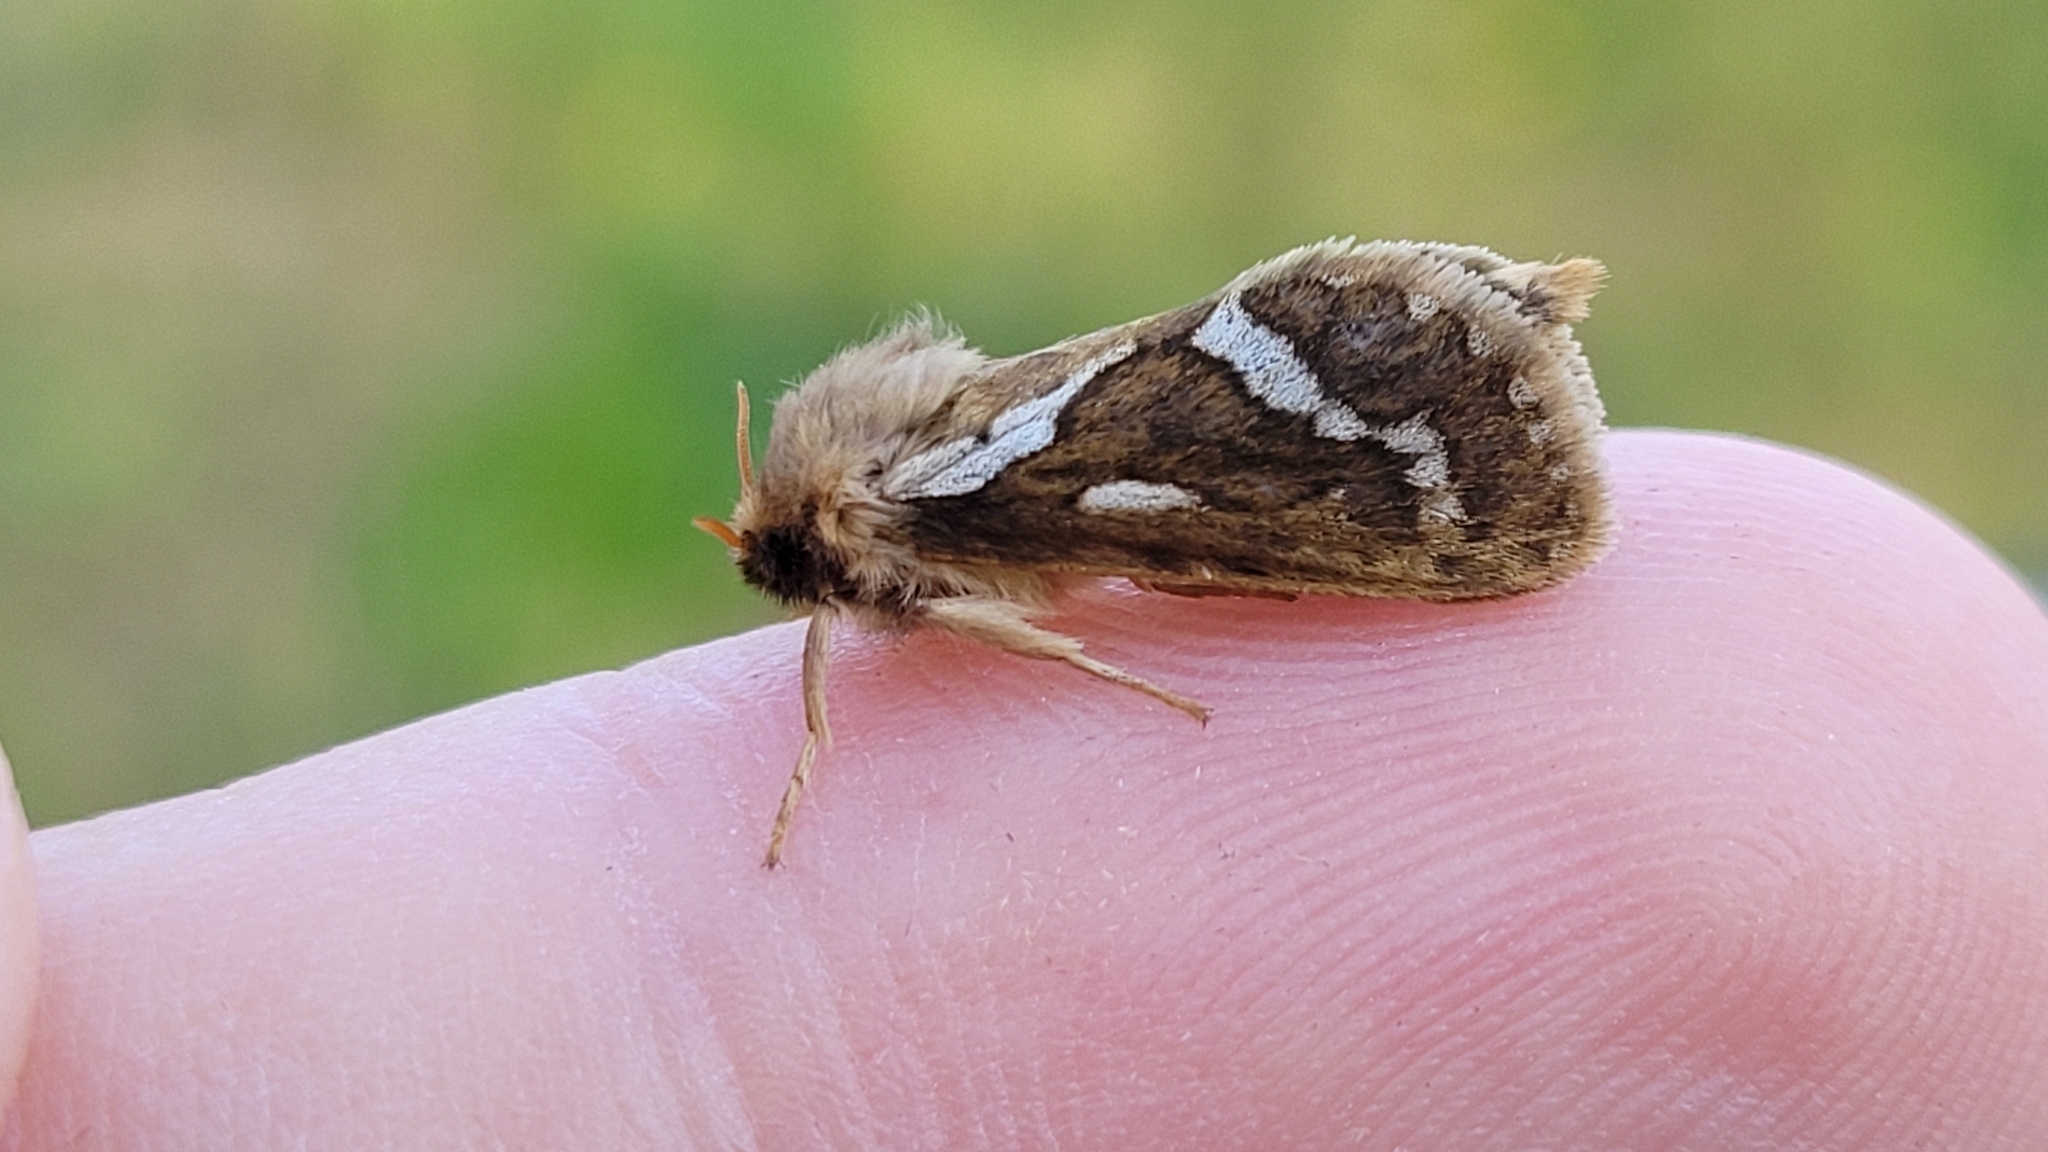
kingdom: Animalia
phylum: Arthropoda
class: Insecta
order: Lepidoptera
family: Hepialidae
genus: Korscheltellus
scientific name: Korscheltellus lupulina
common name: Common swift
